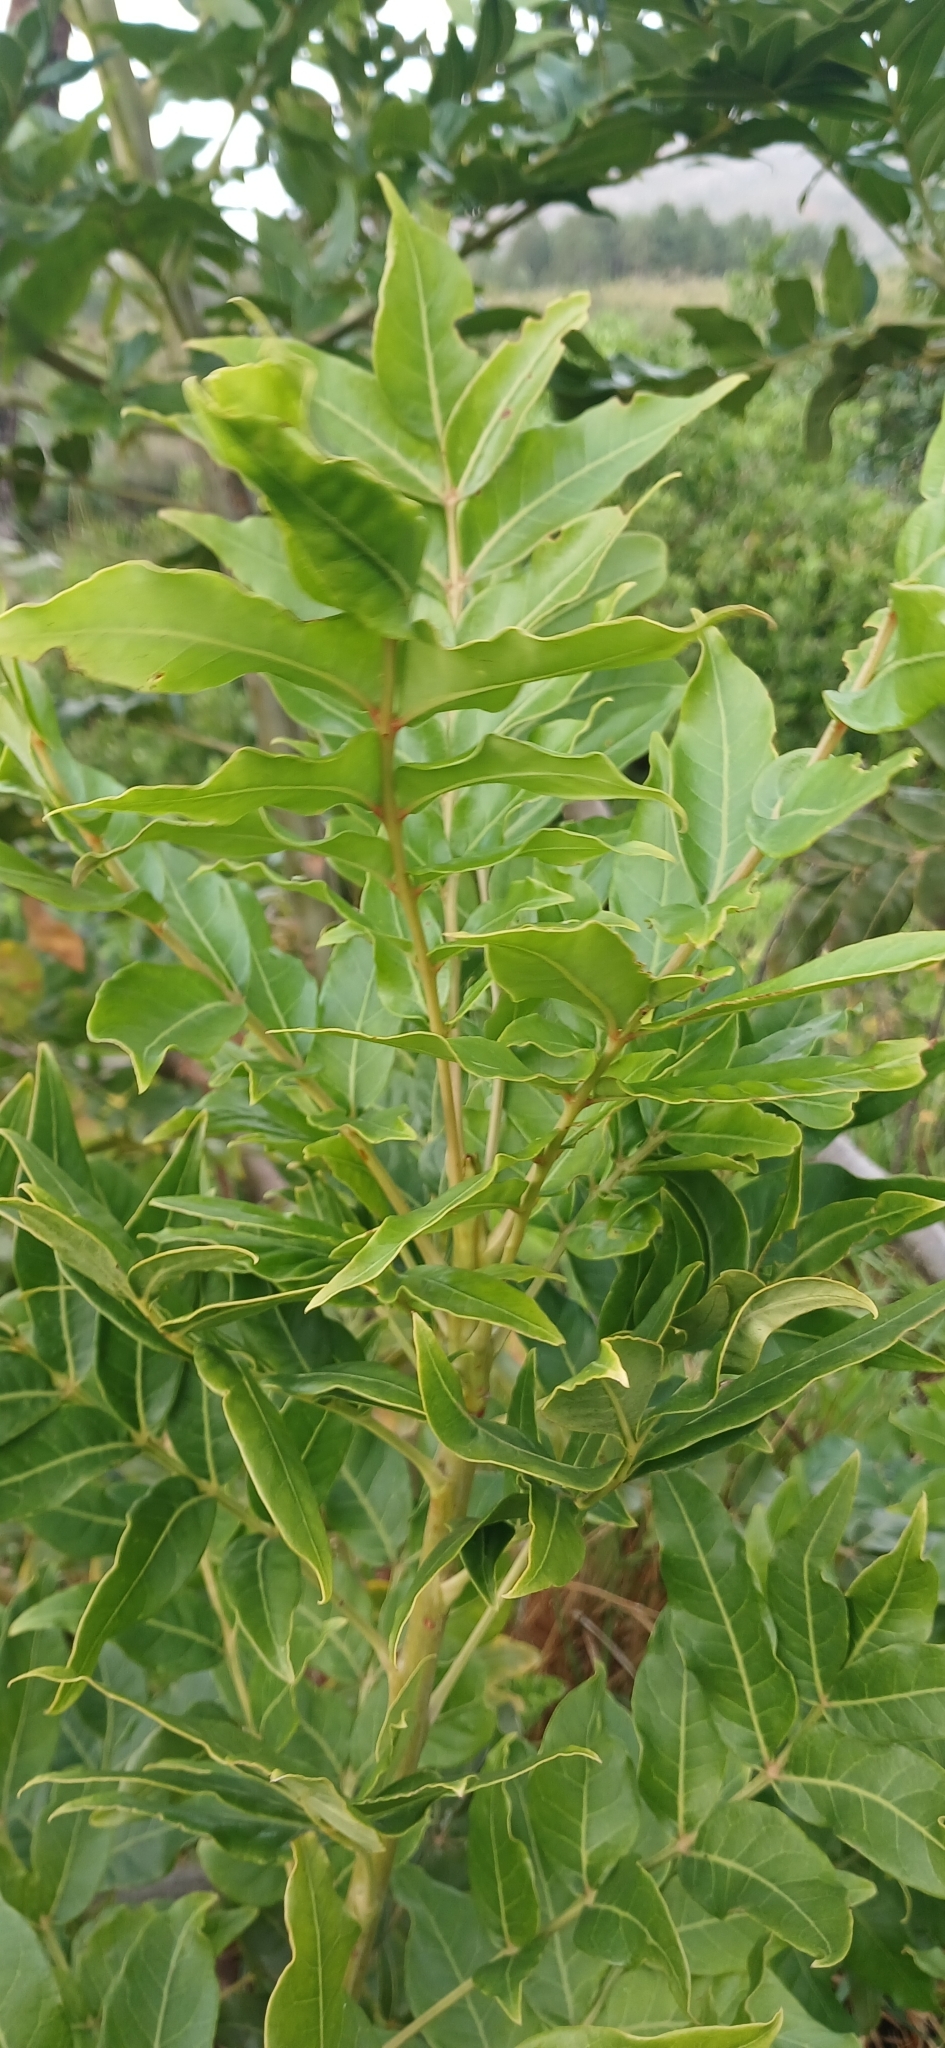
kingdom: Plantae
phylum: Tracheophyta
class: Magnoliopsida
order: Sapindales
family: Meliaceae
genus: Ekebergia
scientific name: Ekebergia capensis
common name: Cape-ash
